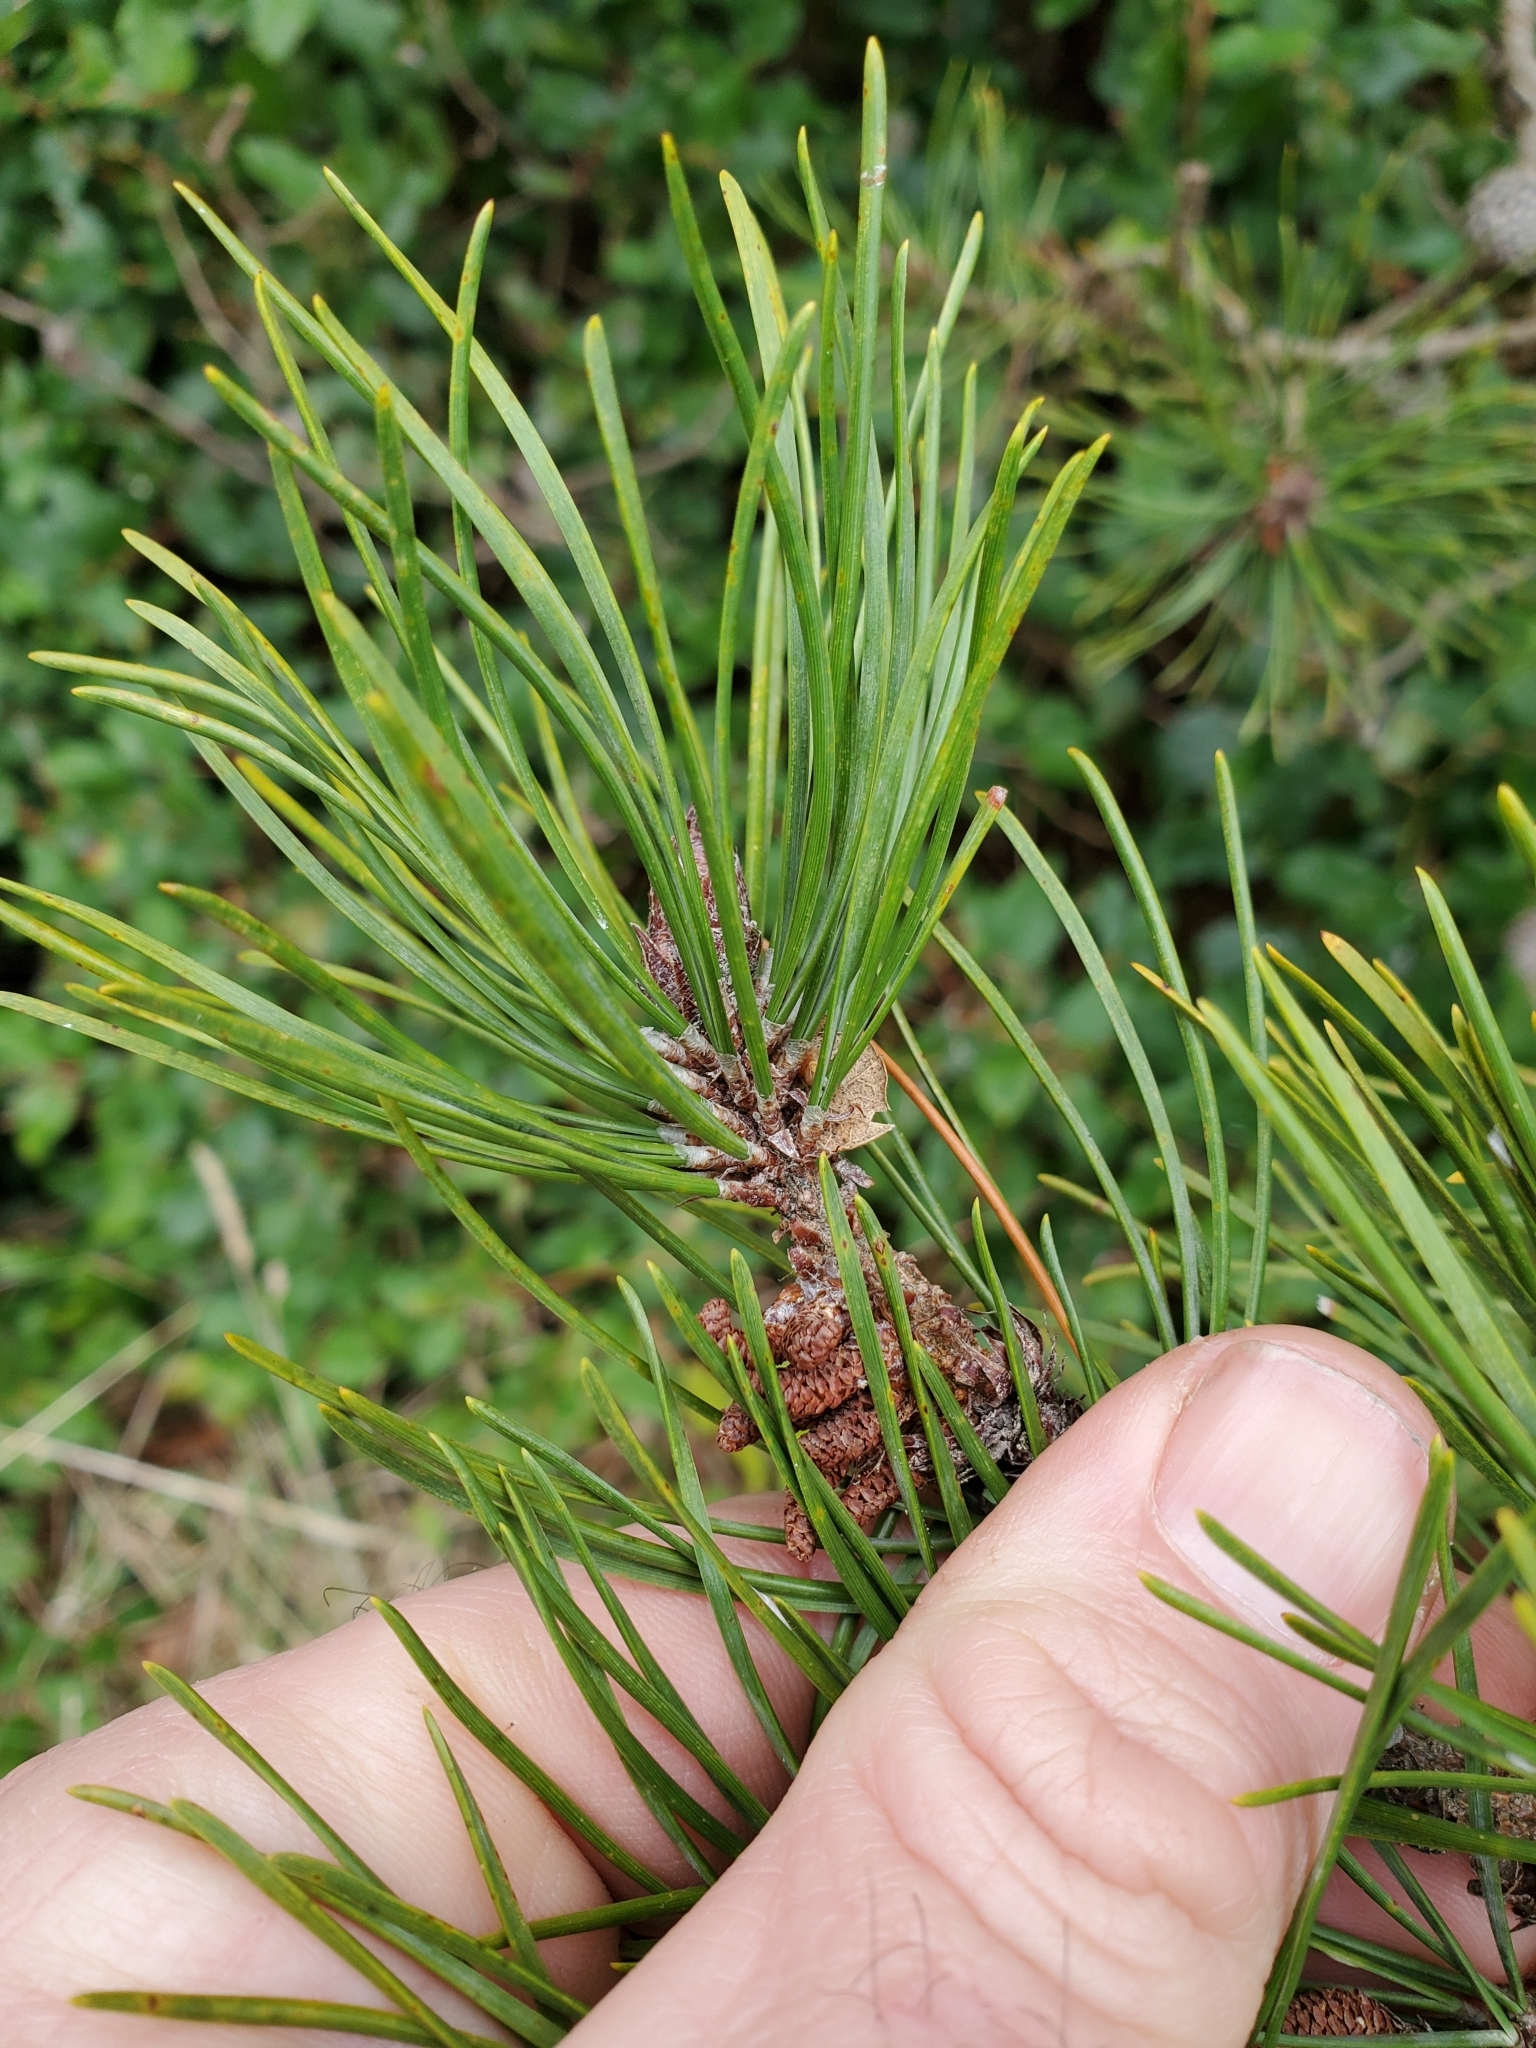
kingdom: Plantae
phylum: Tracheophyta
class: Pinopsida
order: Pinales
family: Pinaceae
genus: Pinus
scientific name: Pinus contorta
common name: Lodgepole pine
